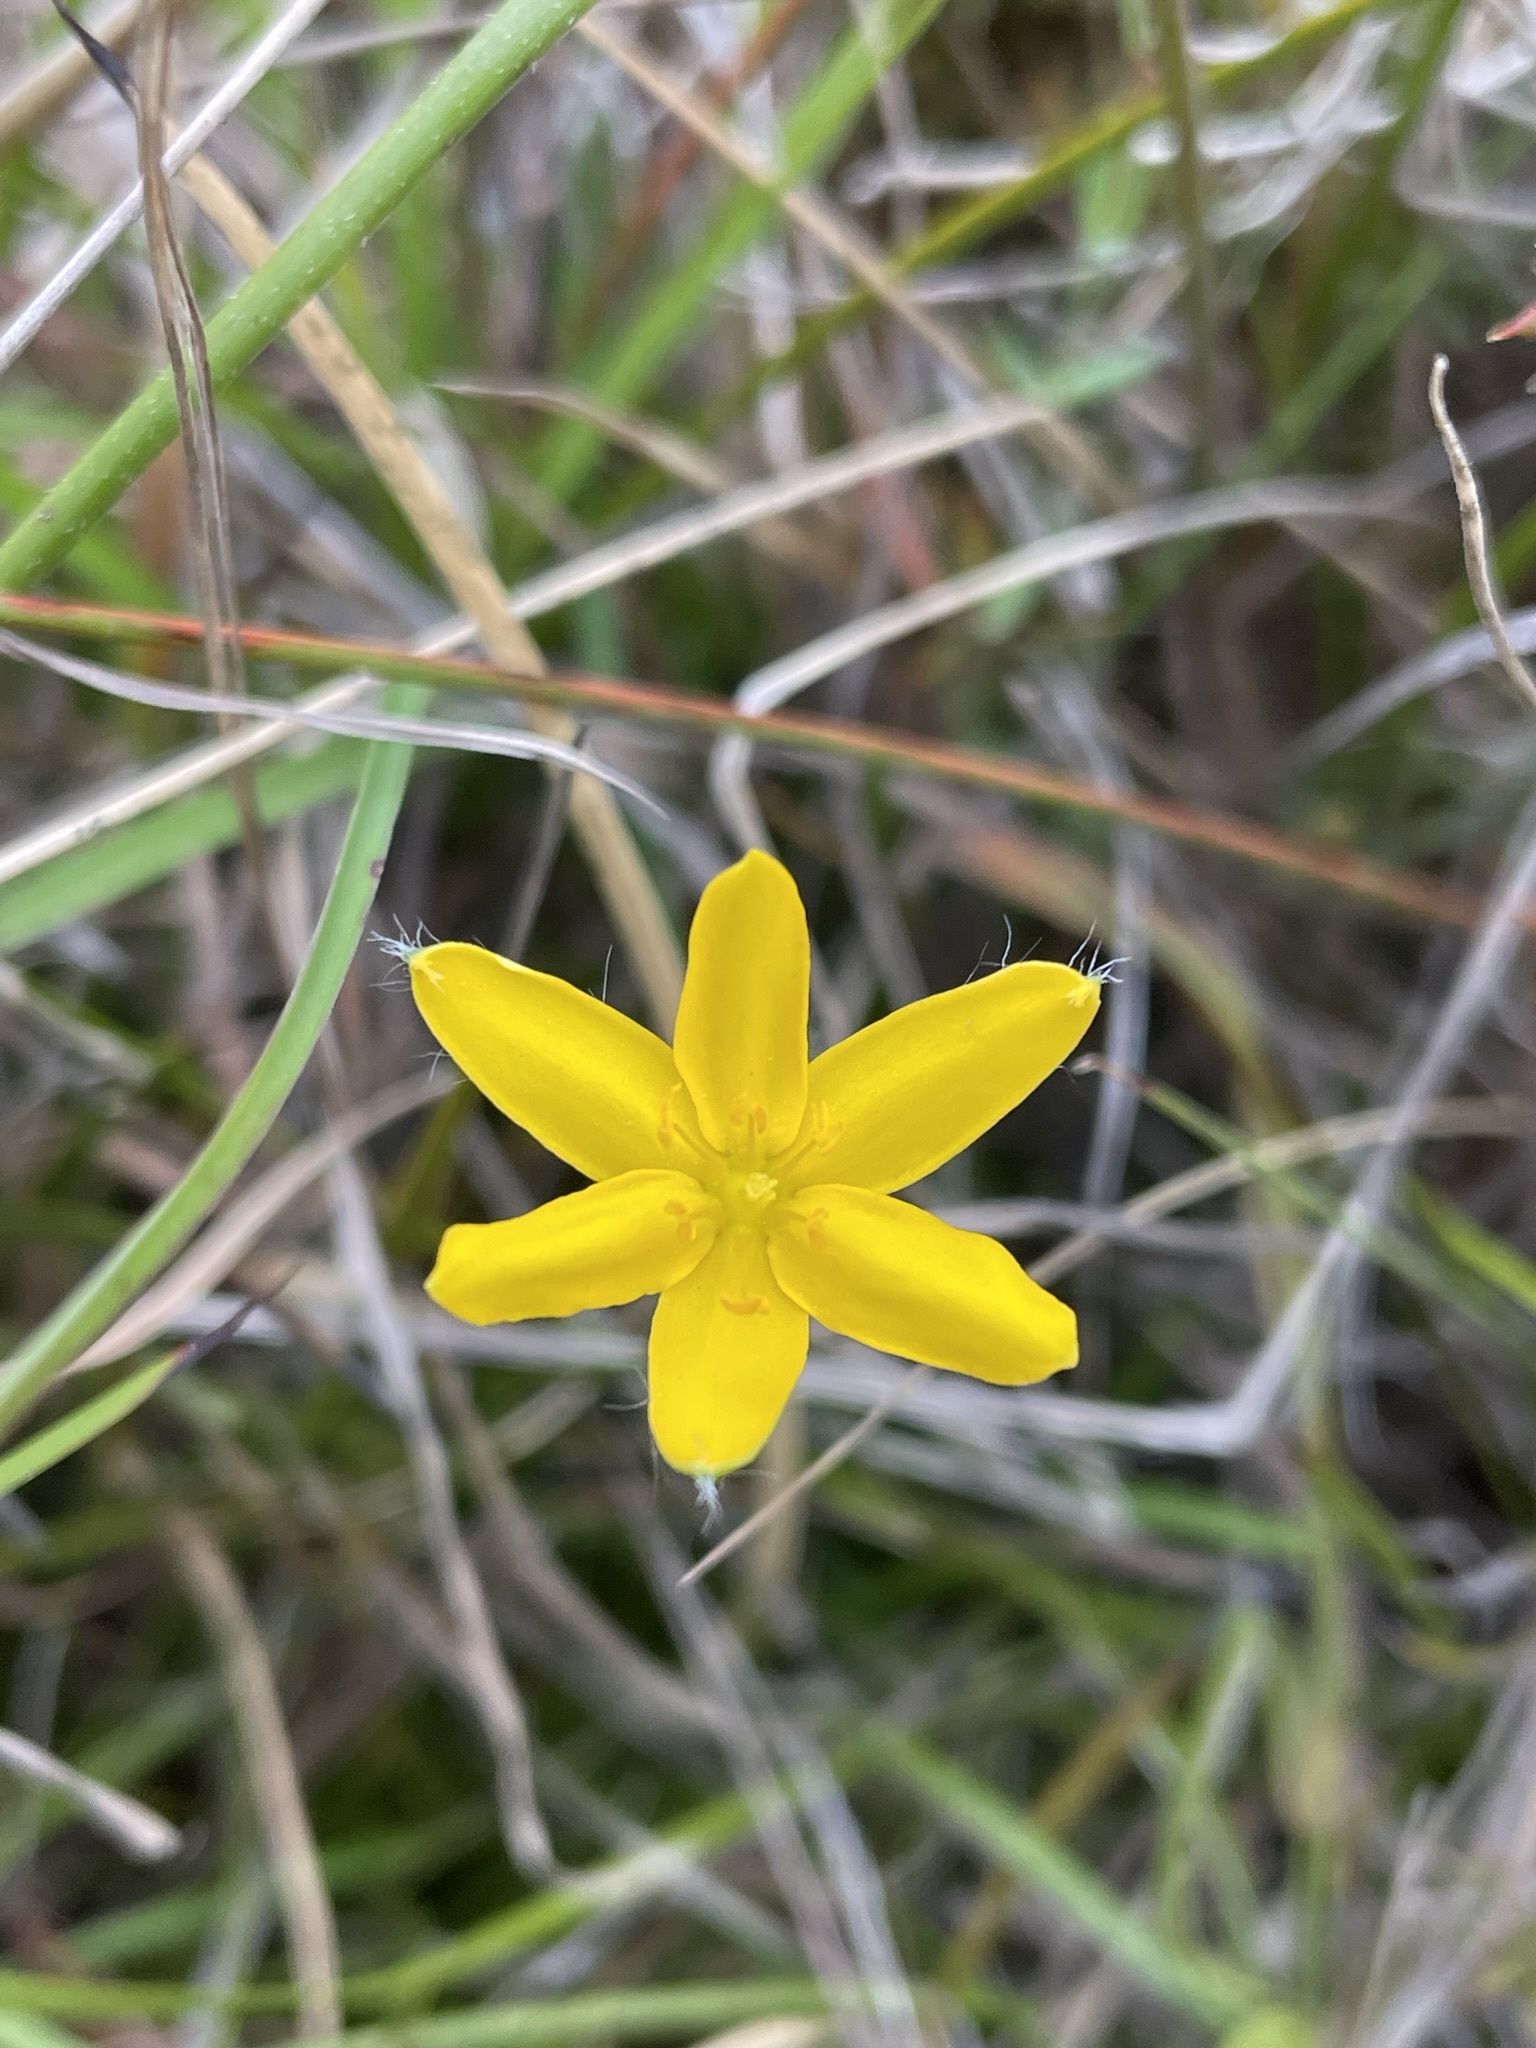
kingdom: Plantae
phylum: Tracheophyta
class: Liliopsida
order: Asparagales
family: Hypoxidaceae
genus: Hypoxis
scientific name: Hypoxis hygrometrica
